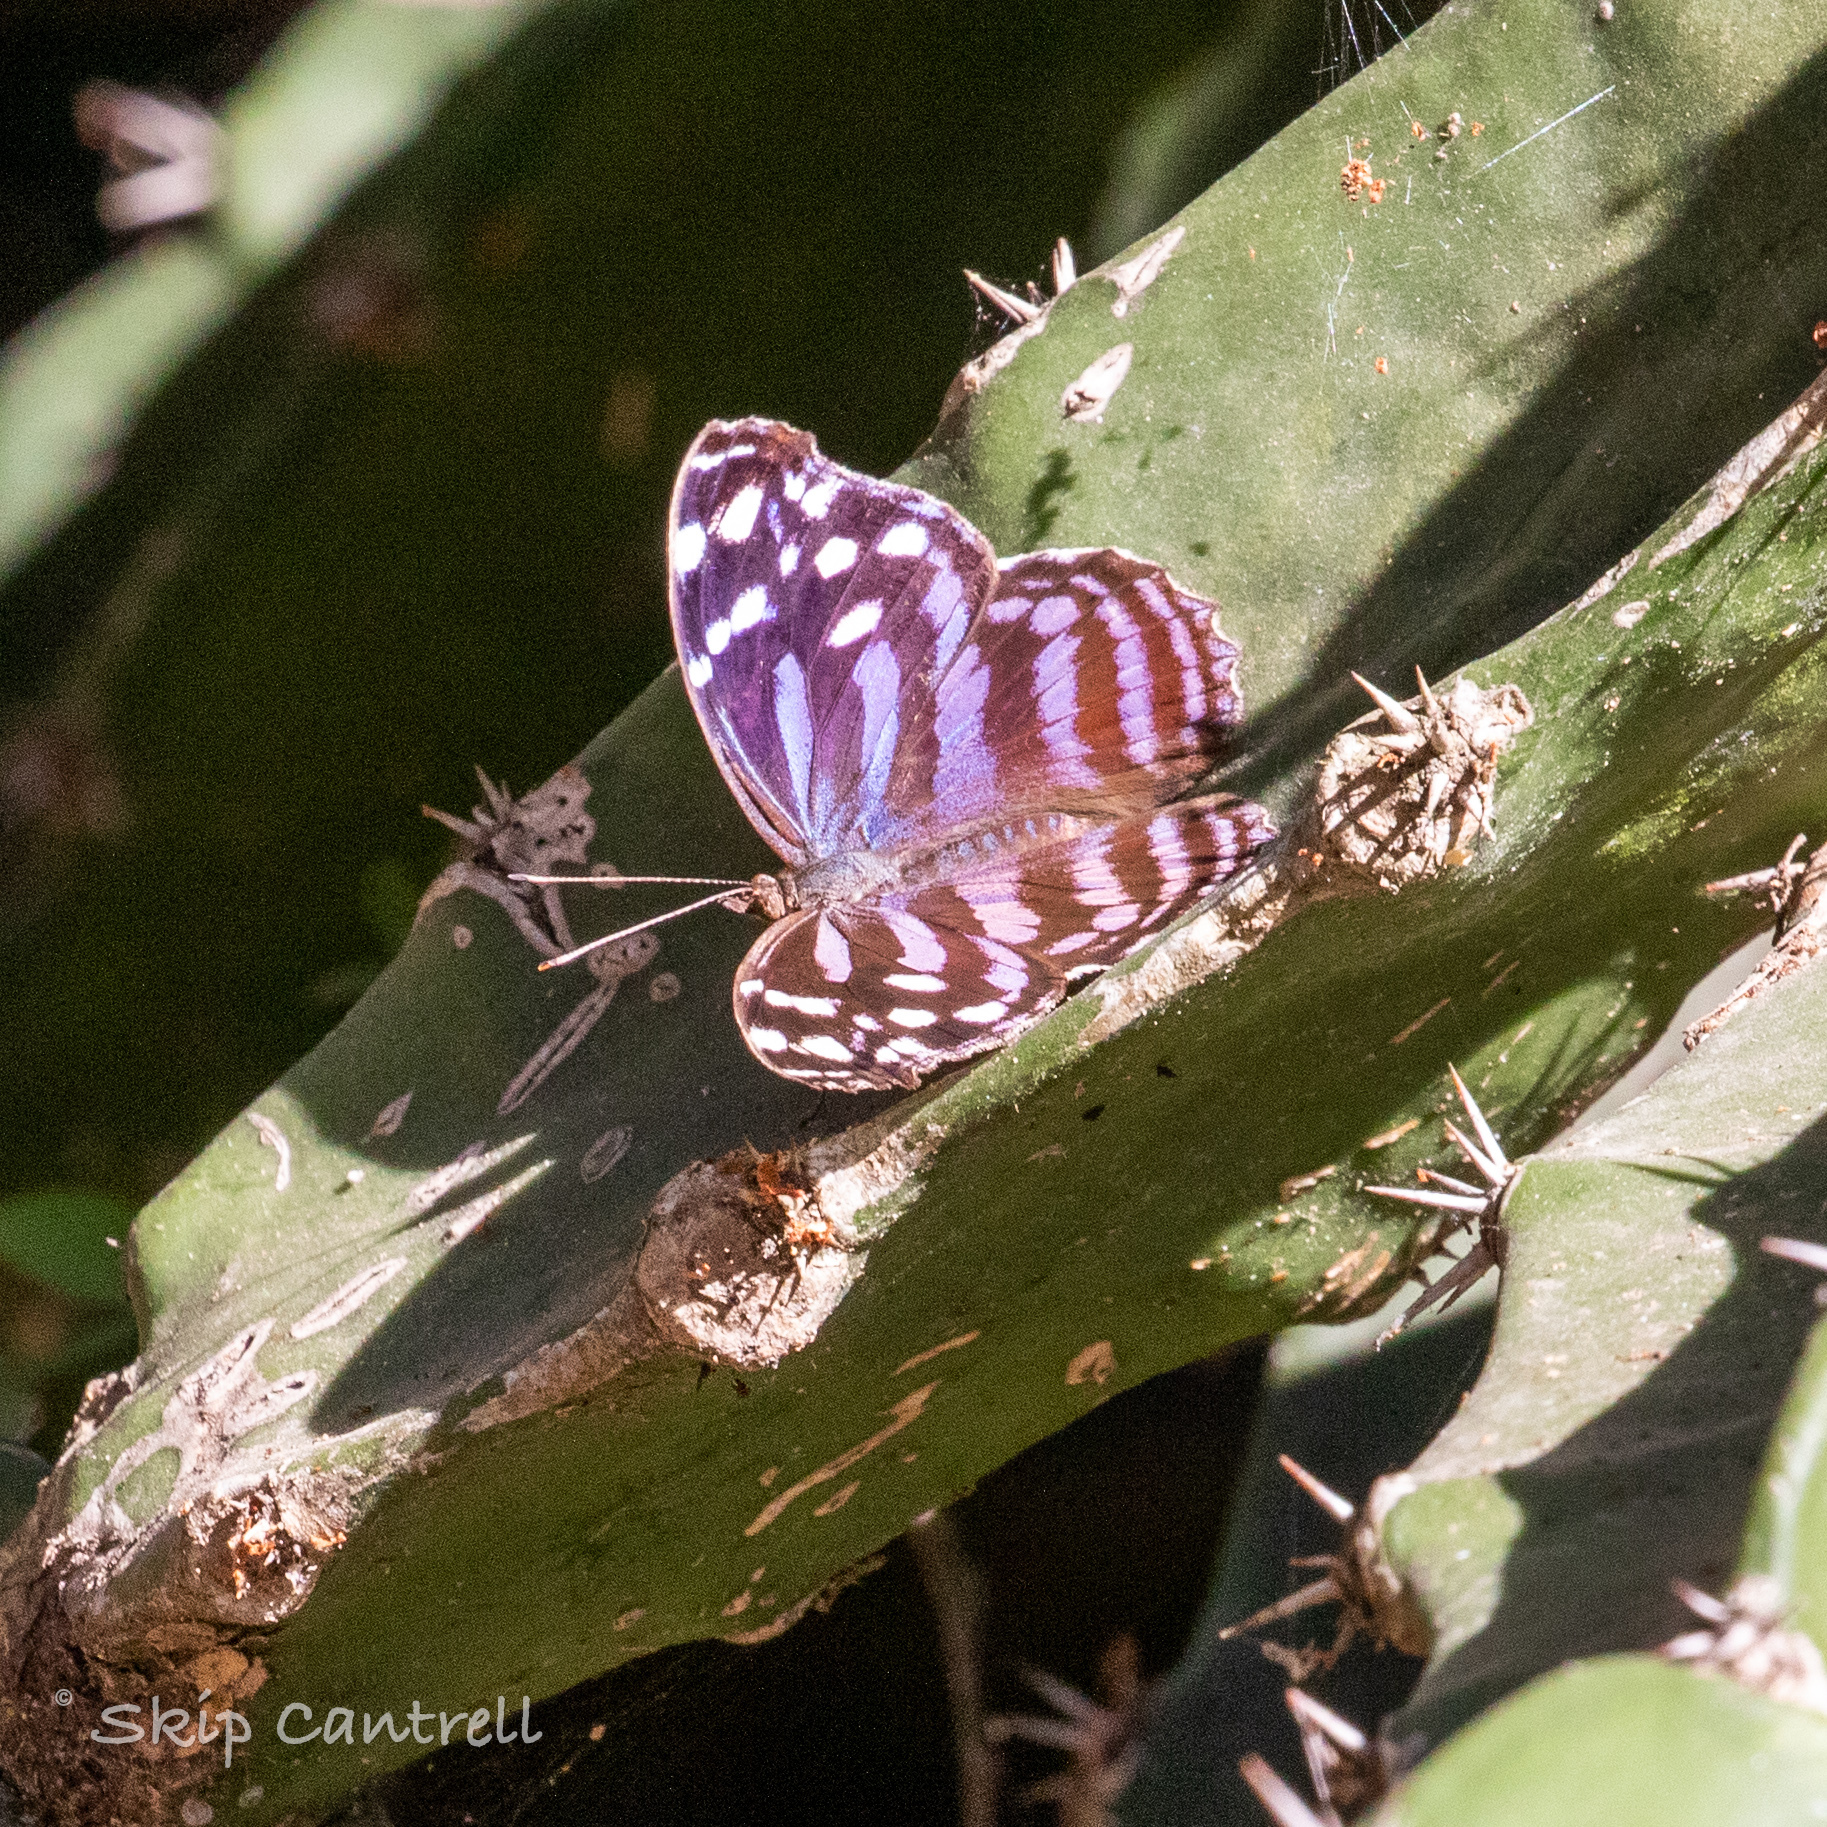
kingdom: Animalia
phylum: Arthropoda
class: Insecta
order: Lepidoptera
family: Nymphalidae
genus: Myscelia
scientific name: Myscelia ethusa
